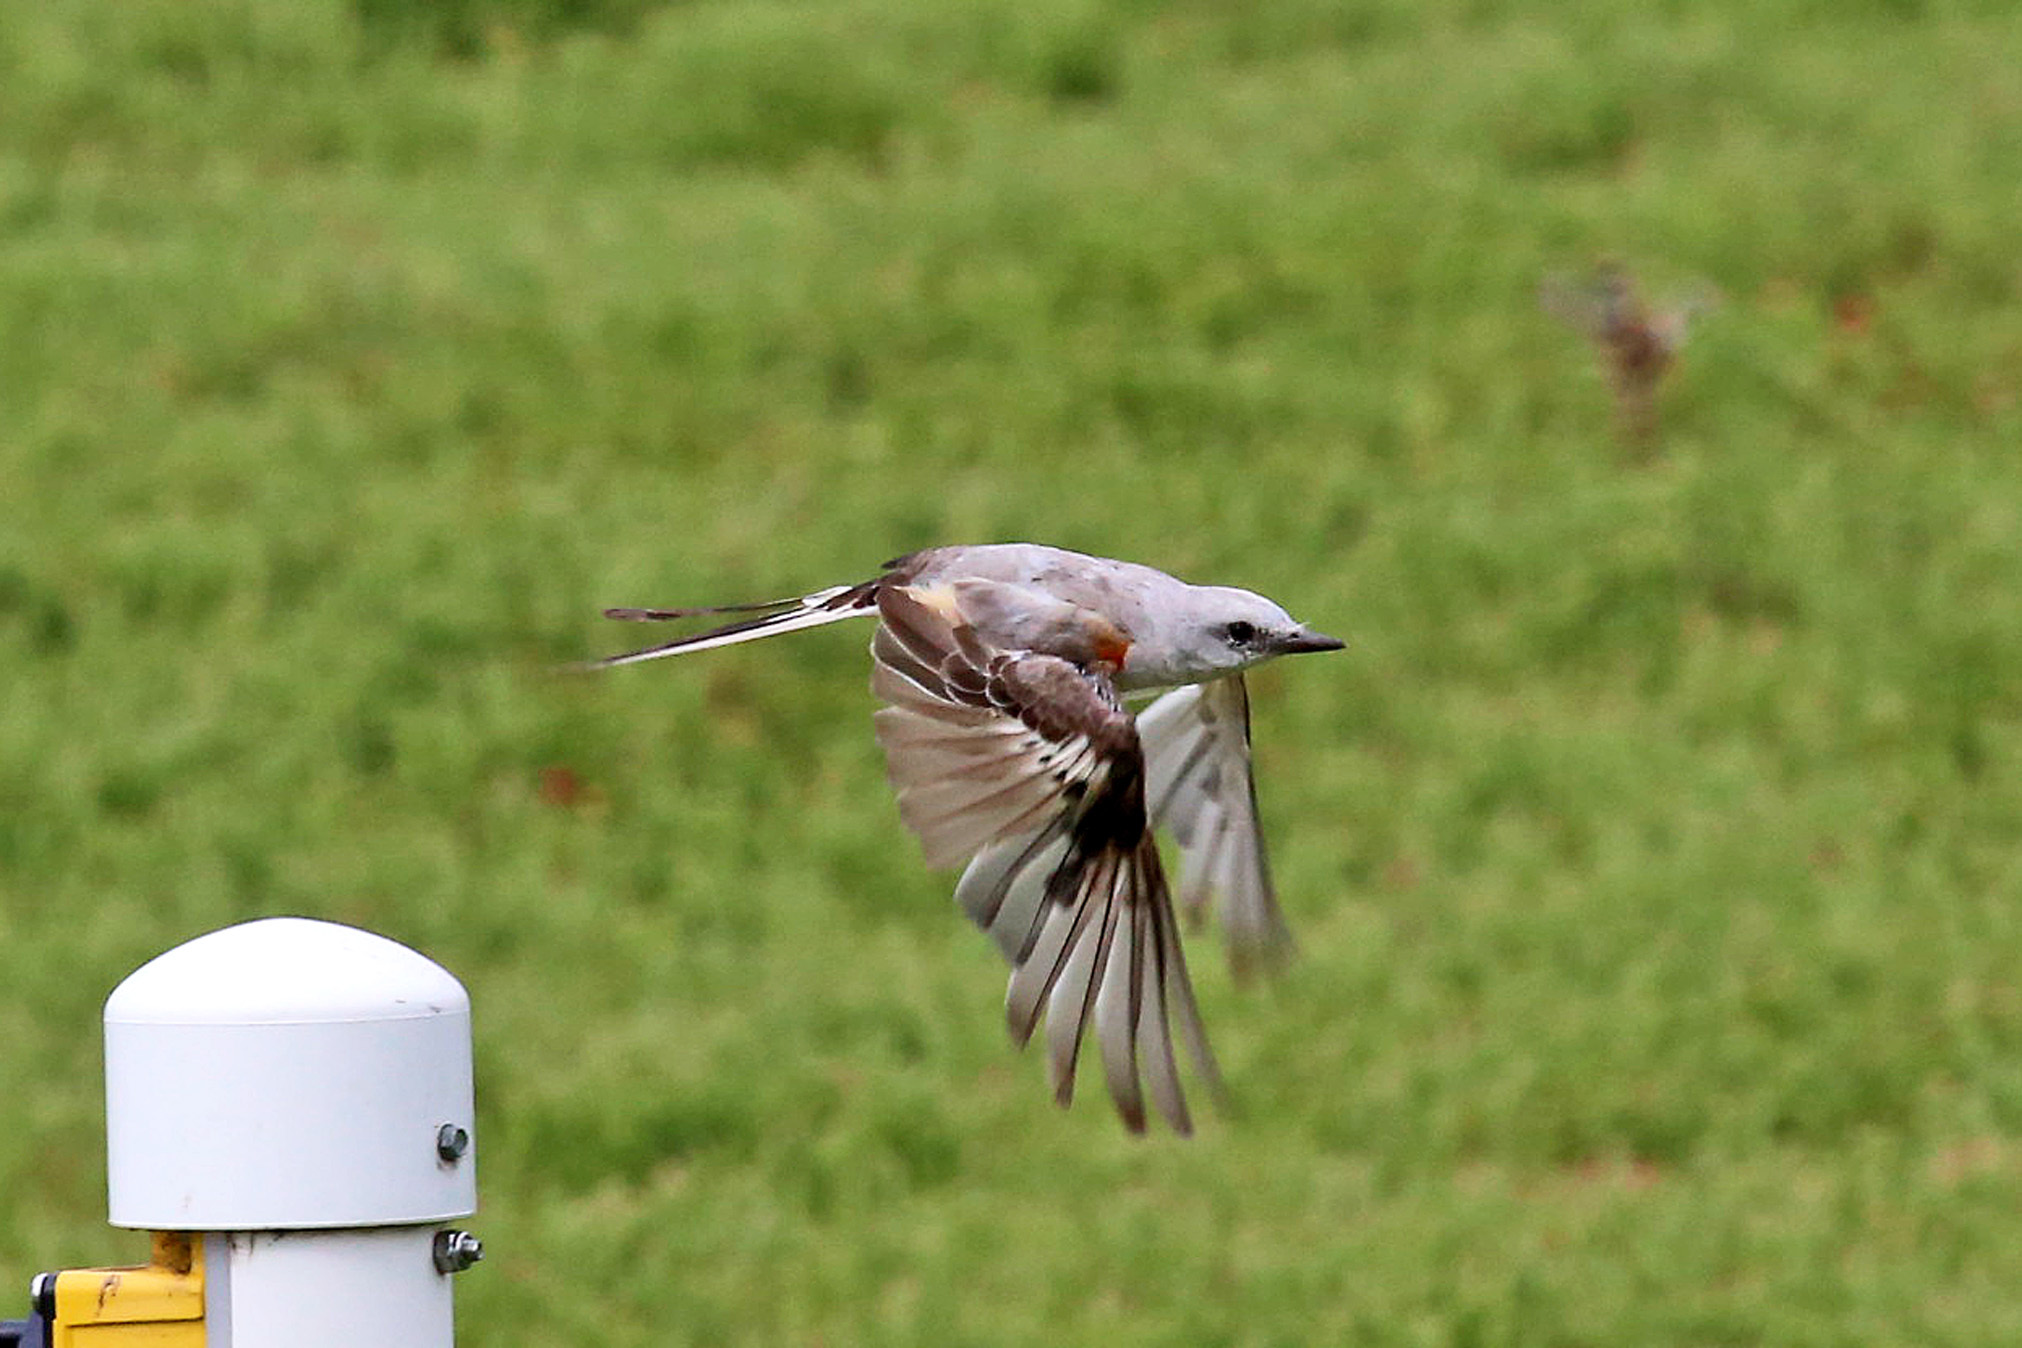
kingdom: Animalia
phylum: Chordata
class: Aves
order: Passeriformes
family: Tyrannidae
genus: Tyrannus
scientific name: Tyrannus forficatus
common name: Scissor-tailed flycatcher
